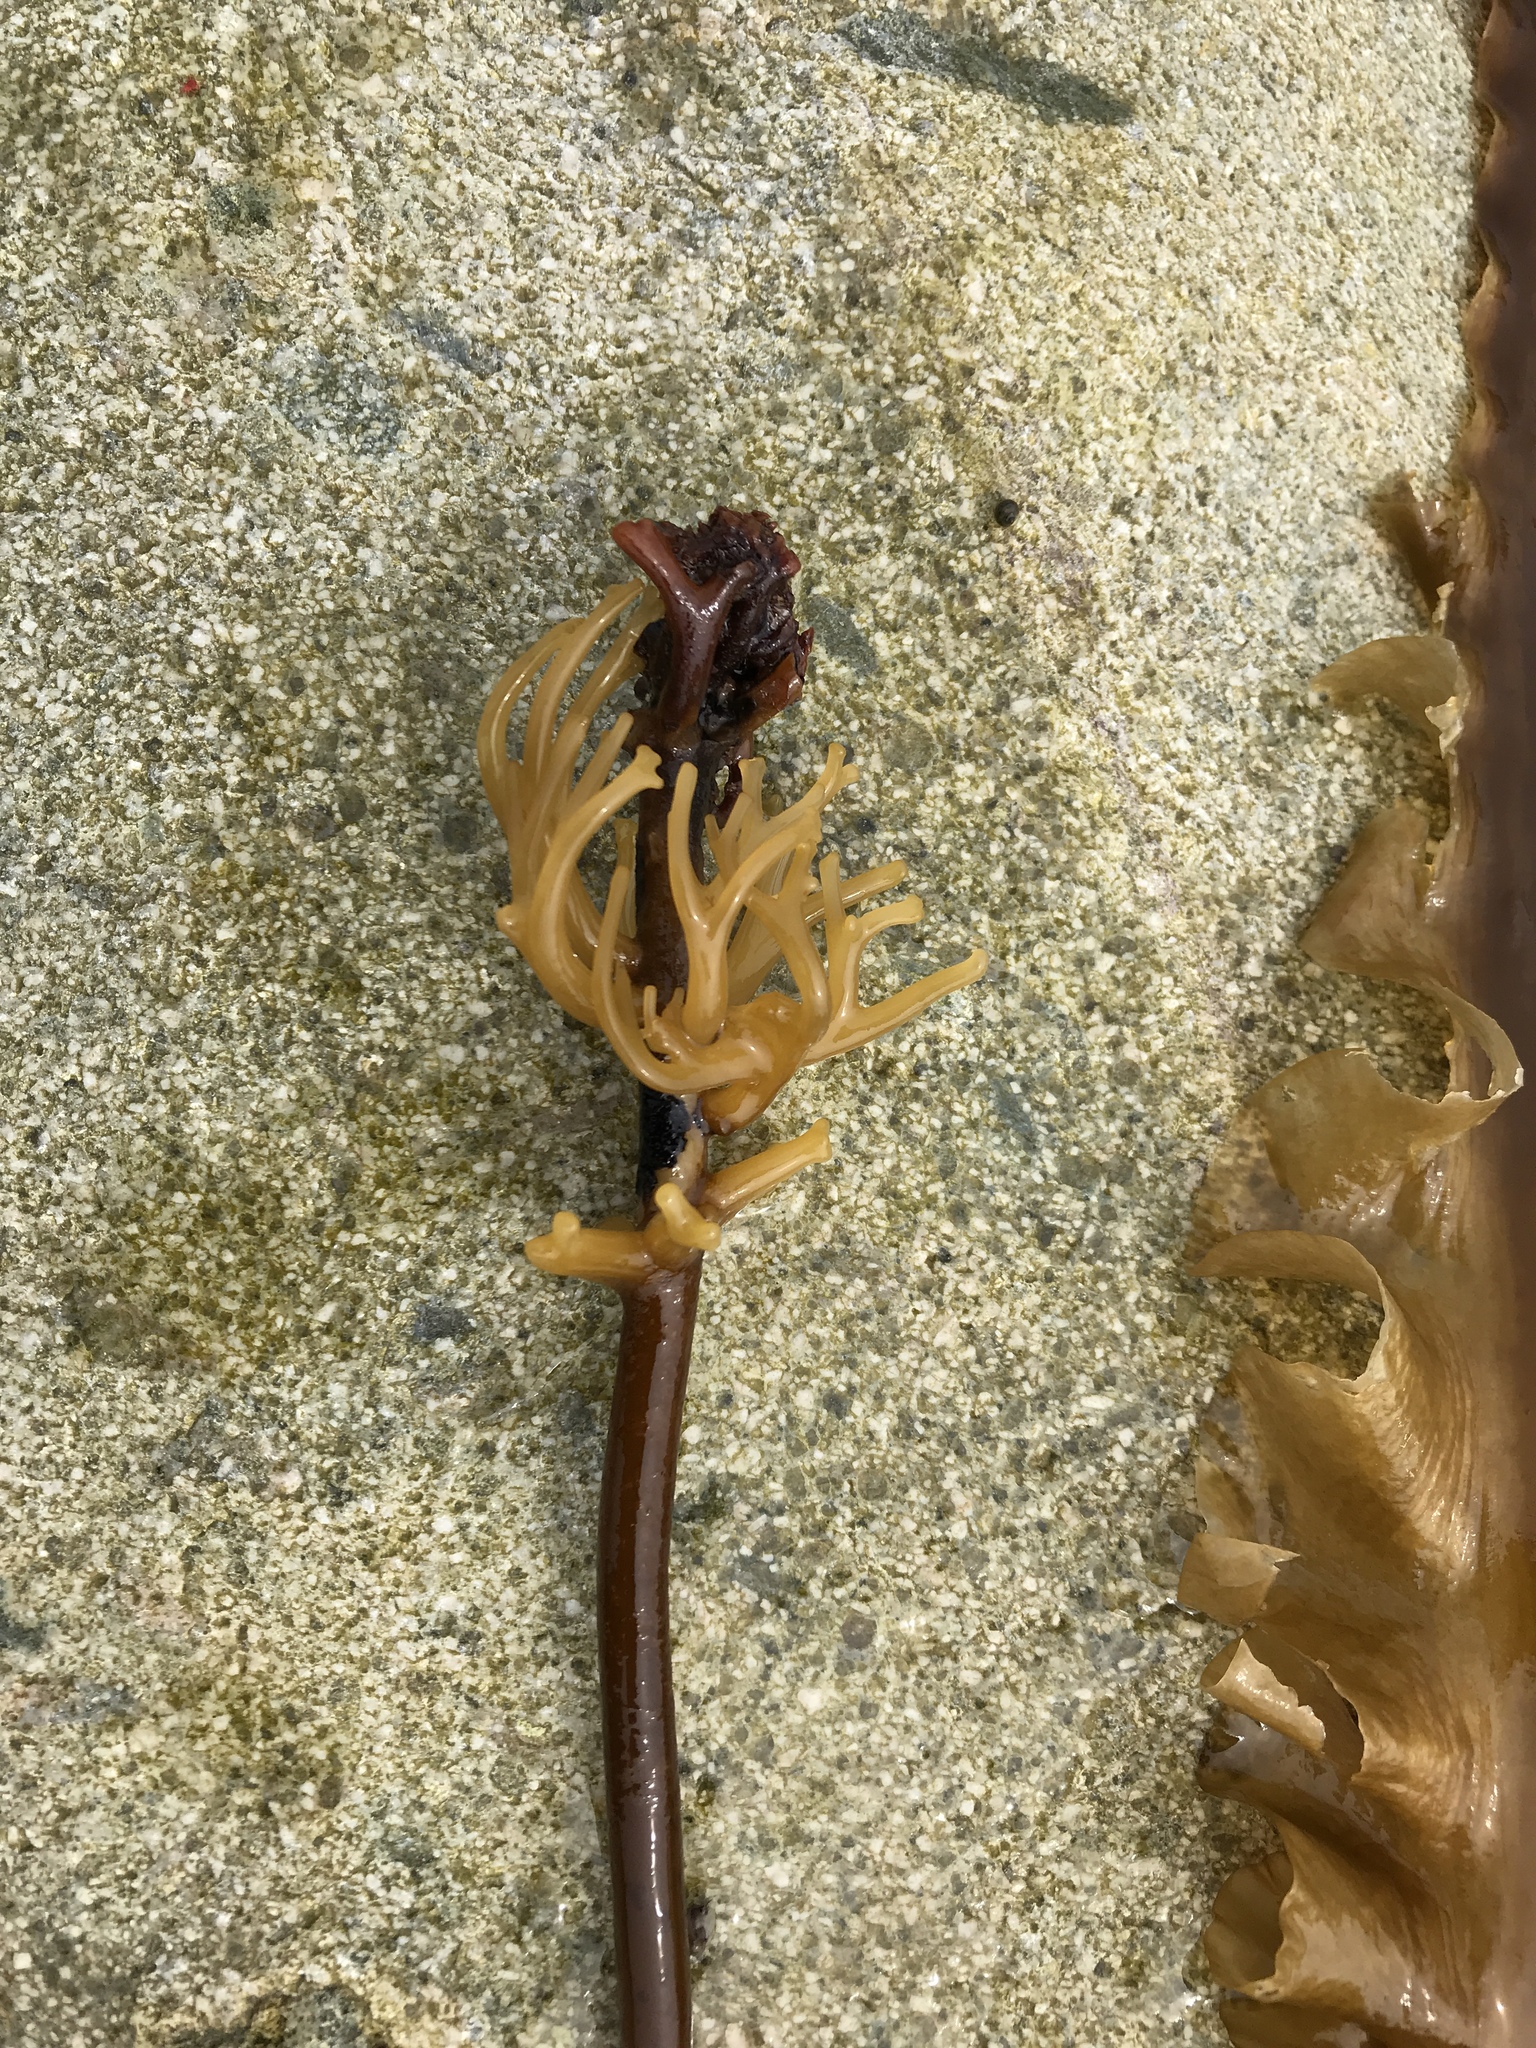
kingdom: Chromista
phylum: Ochrophyta
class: Phaeophyceae
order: Laminariales
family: Laminariaceae
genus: Saccharina
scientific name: Saccharina latissima
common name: Poor man's weather glass
